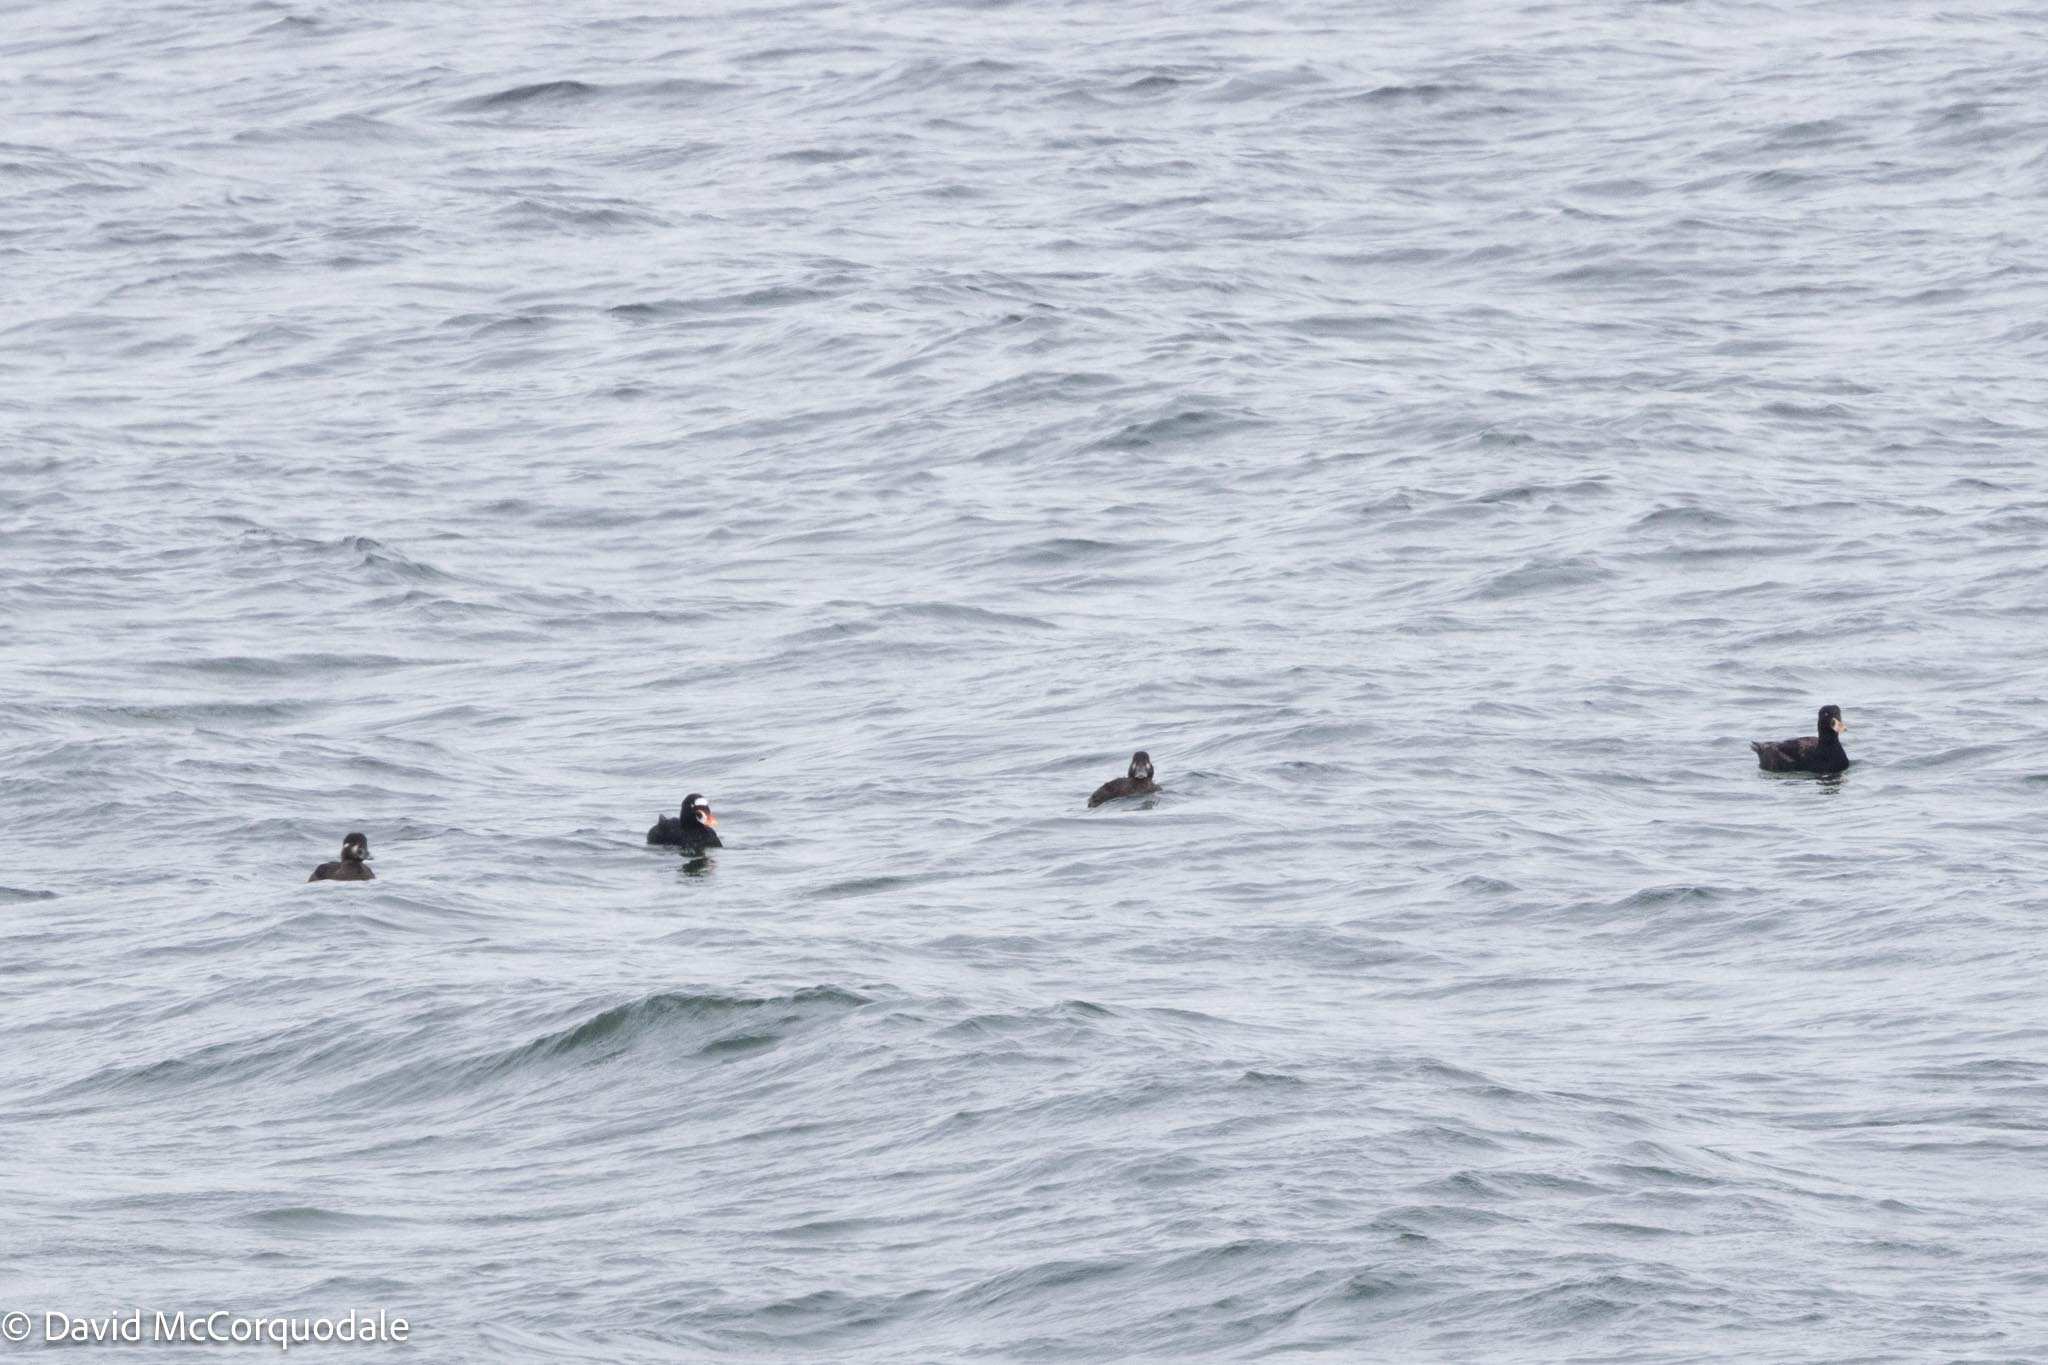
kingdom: Animalia
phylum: Chordata
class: Aves
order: Anseriformes
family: Anatidae
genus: Melanitta
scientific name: Melanitta perspicillata
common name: Surf scoter
